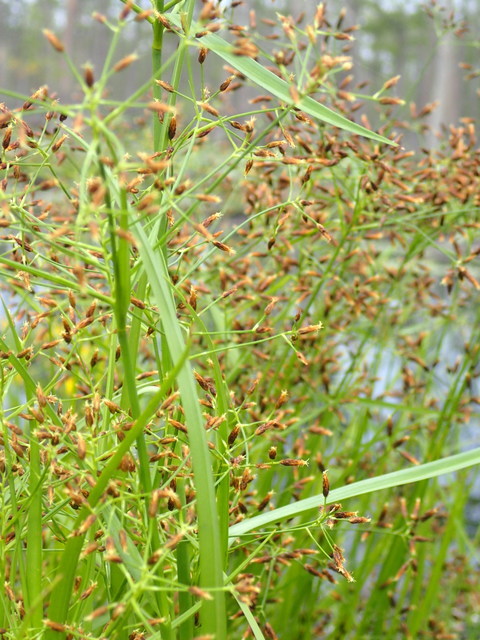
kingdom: Plantae
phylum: Tracheophyta
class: Liliopsida
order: Poales
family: Cyperaceae
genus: Rhynchospora
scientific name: Rhynchospora nitens
